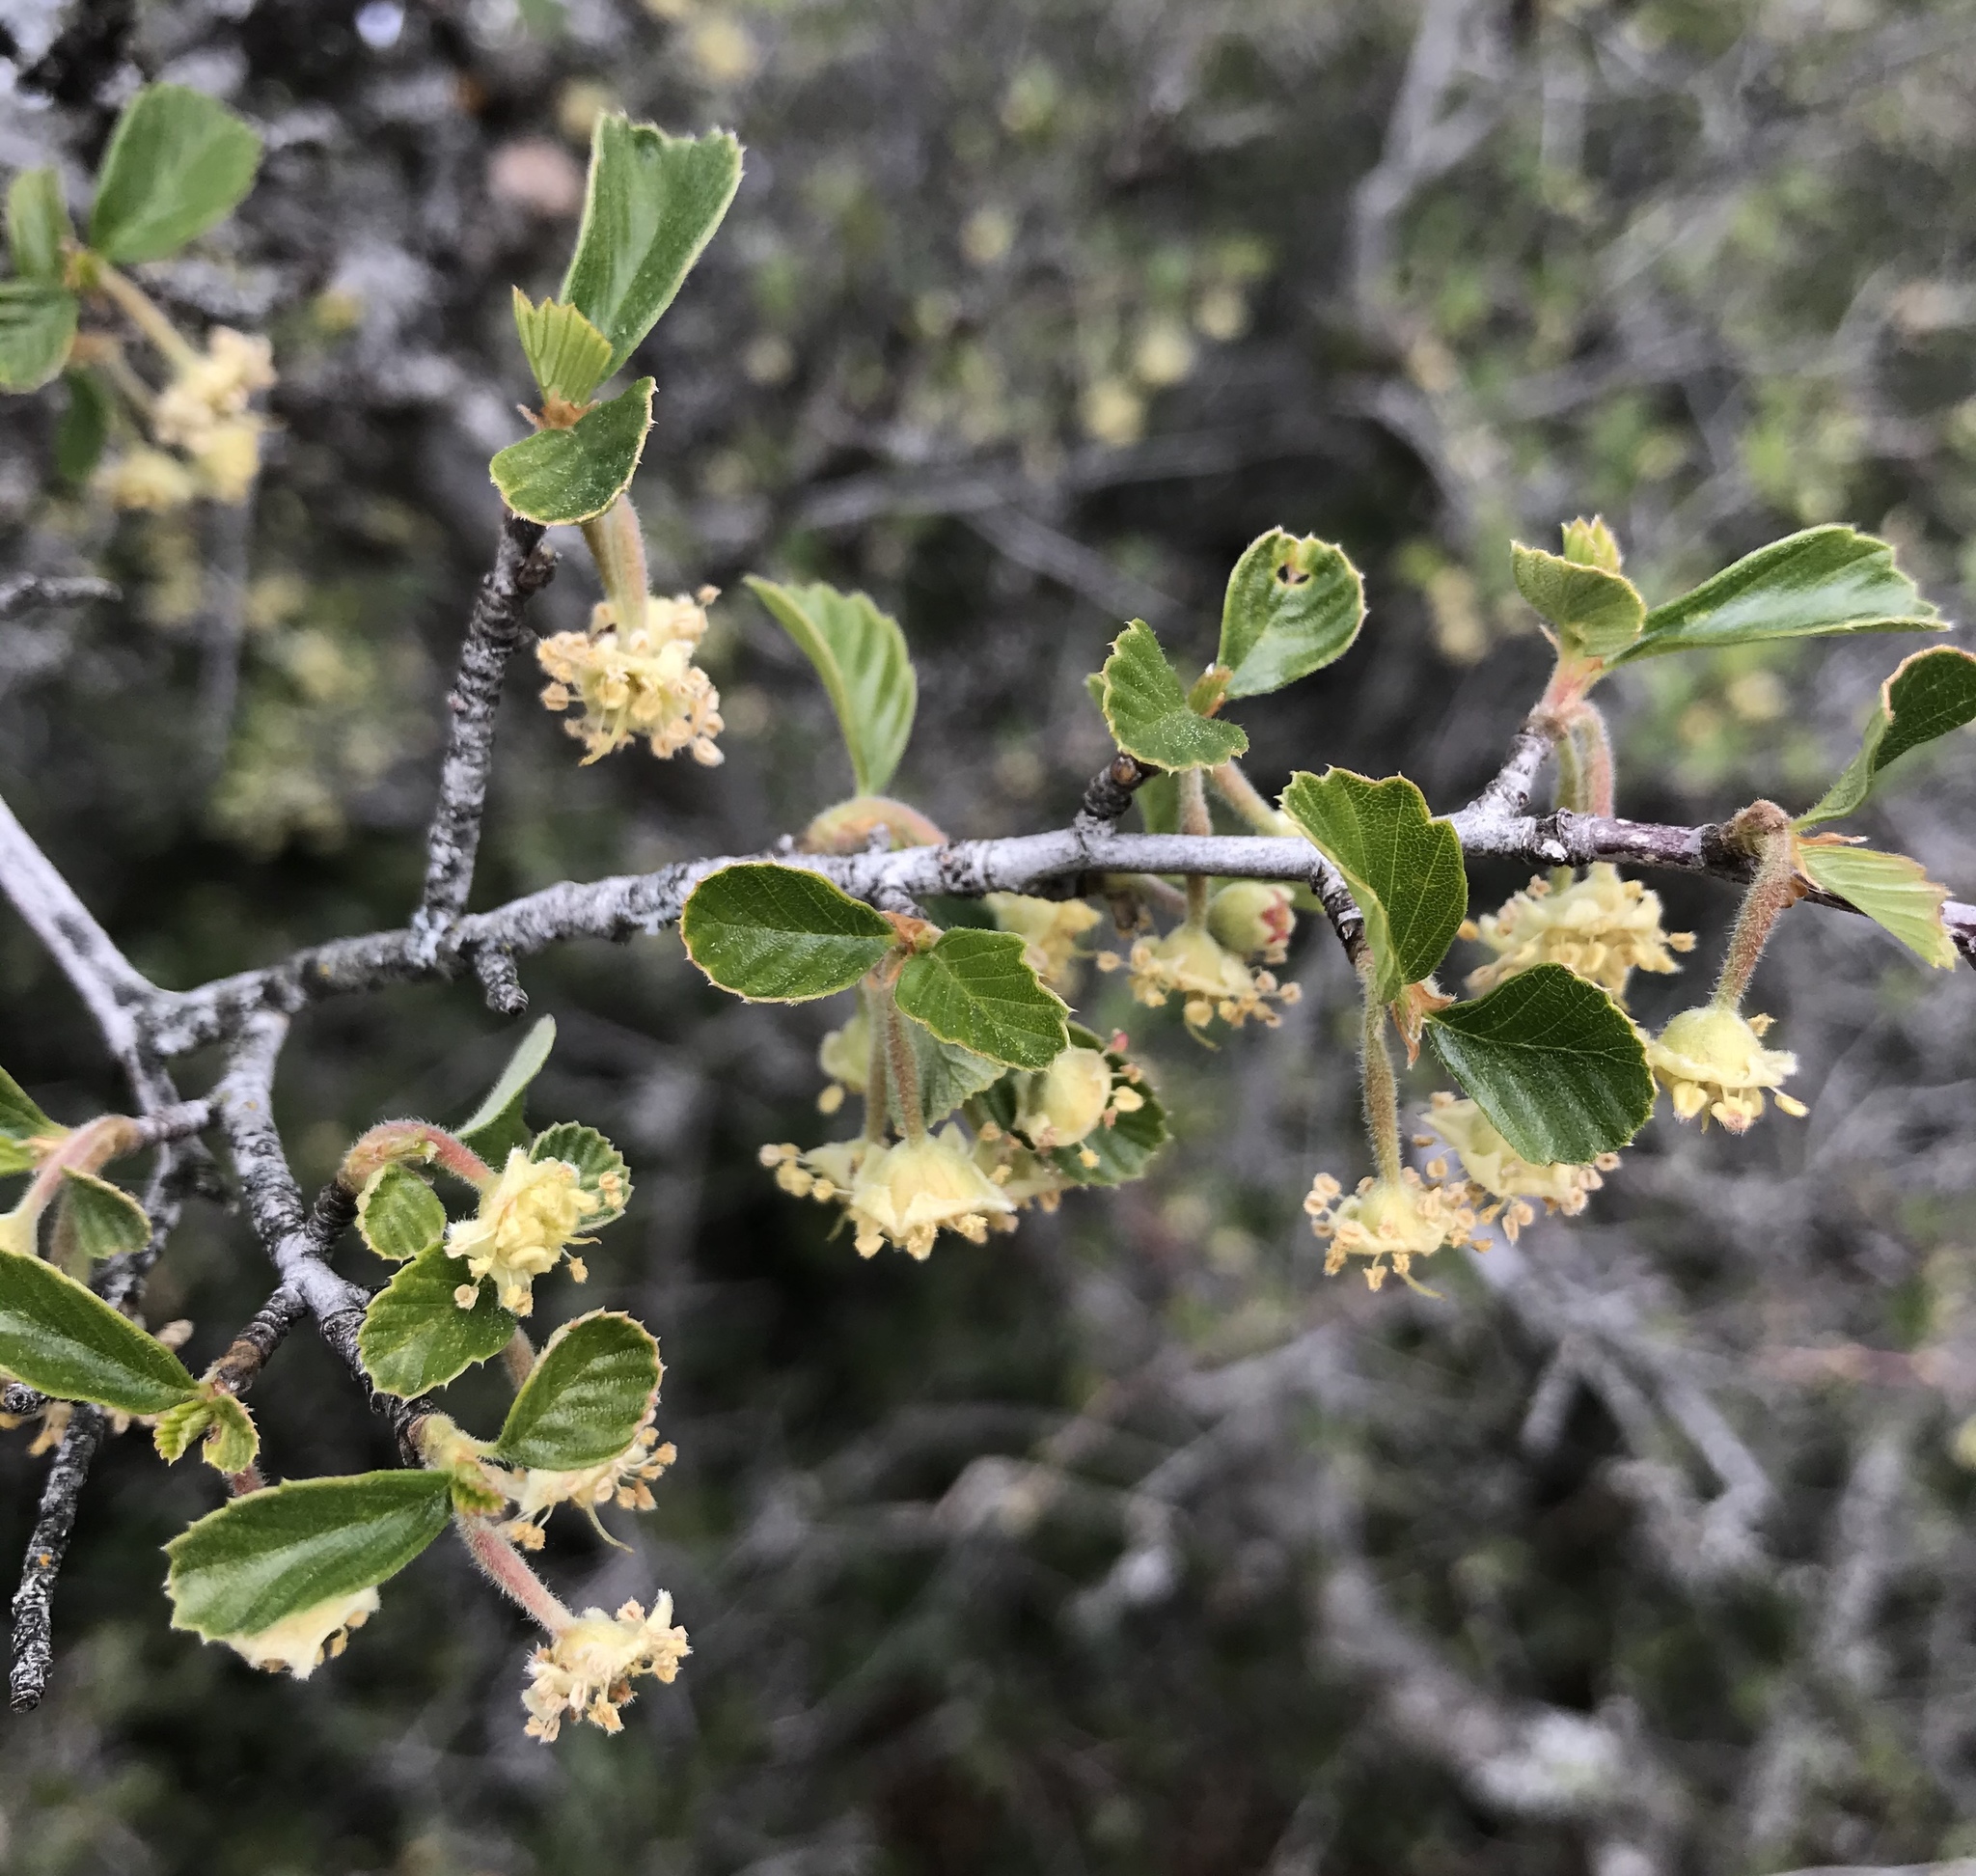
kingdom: Plantae
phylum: Tracheophyta
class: Magnoliopsida
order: Rosales
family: Rosaceae
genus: Cercocarpus
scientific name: Cercocarpus betuloides
